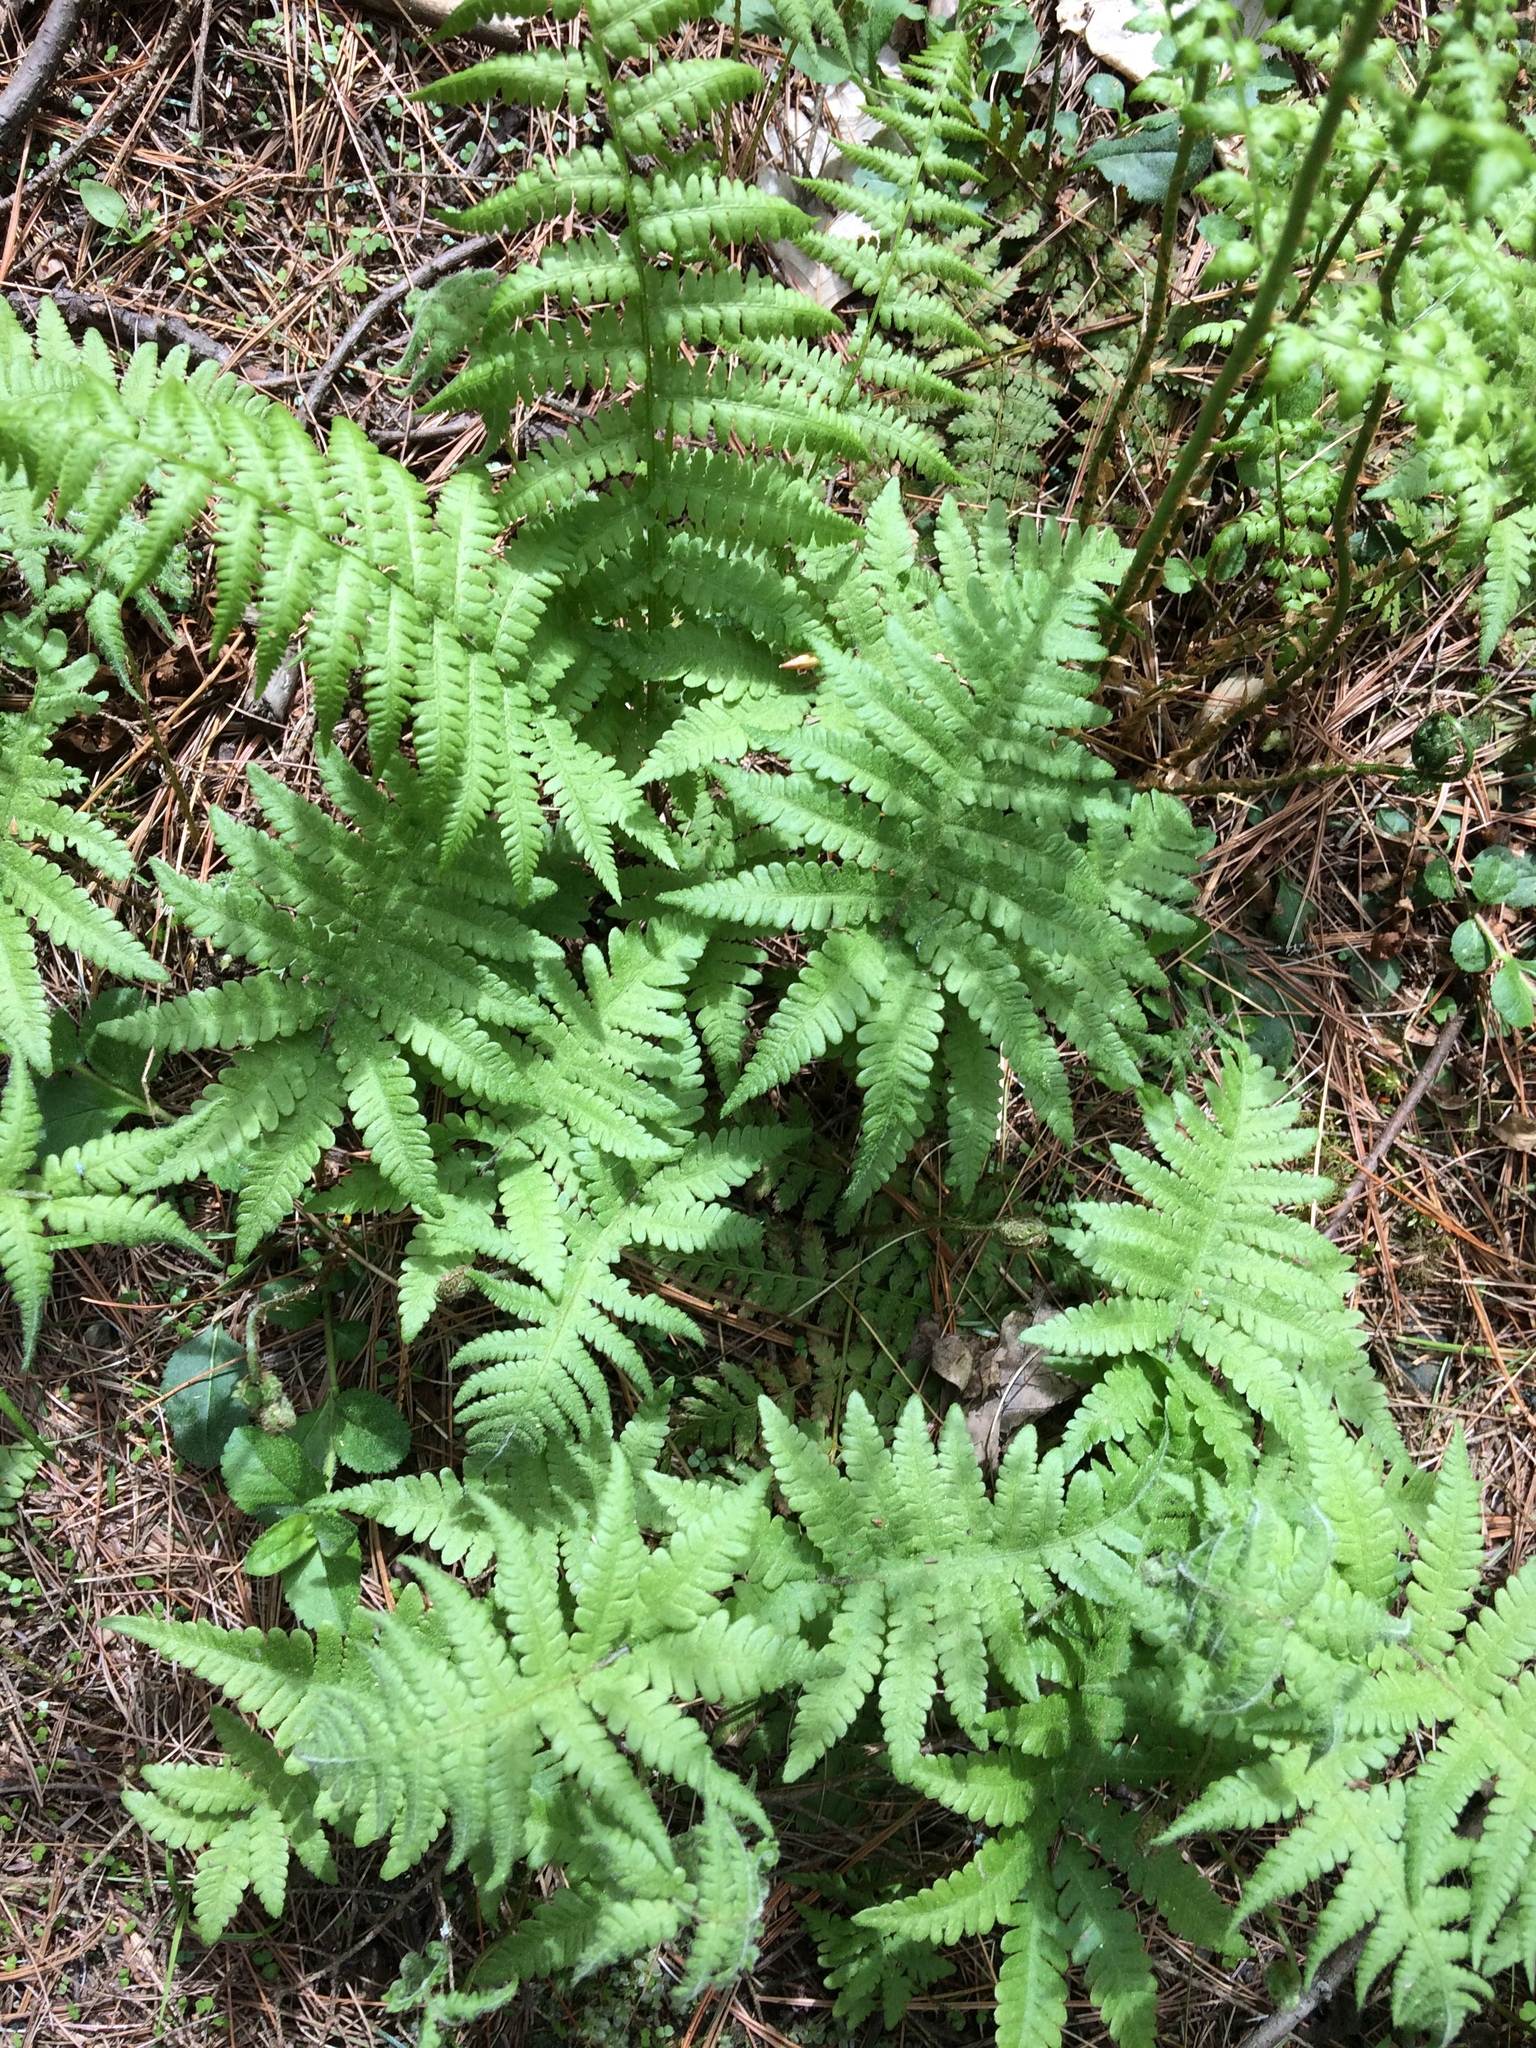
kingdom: Plantae
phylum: Tracheophyta
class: Polypodiopsida
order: Polypodiales
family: Thelypteridaceae
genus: Phegopteris
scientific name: Phegopteris connectilis
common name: Beech fern
